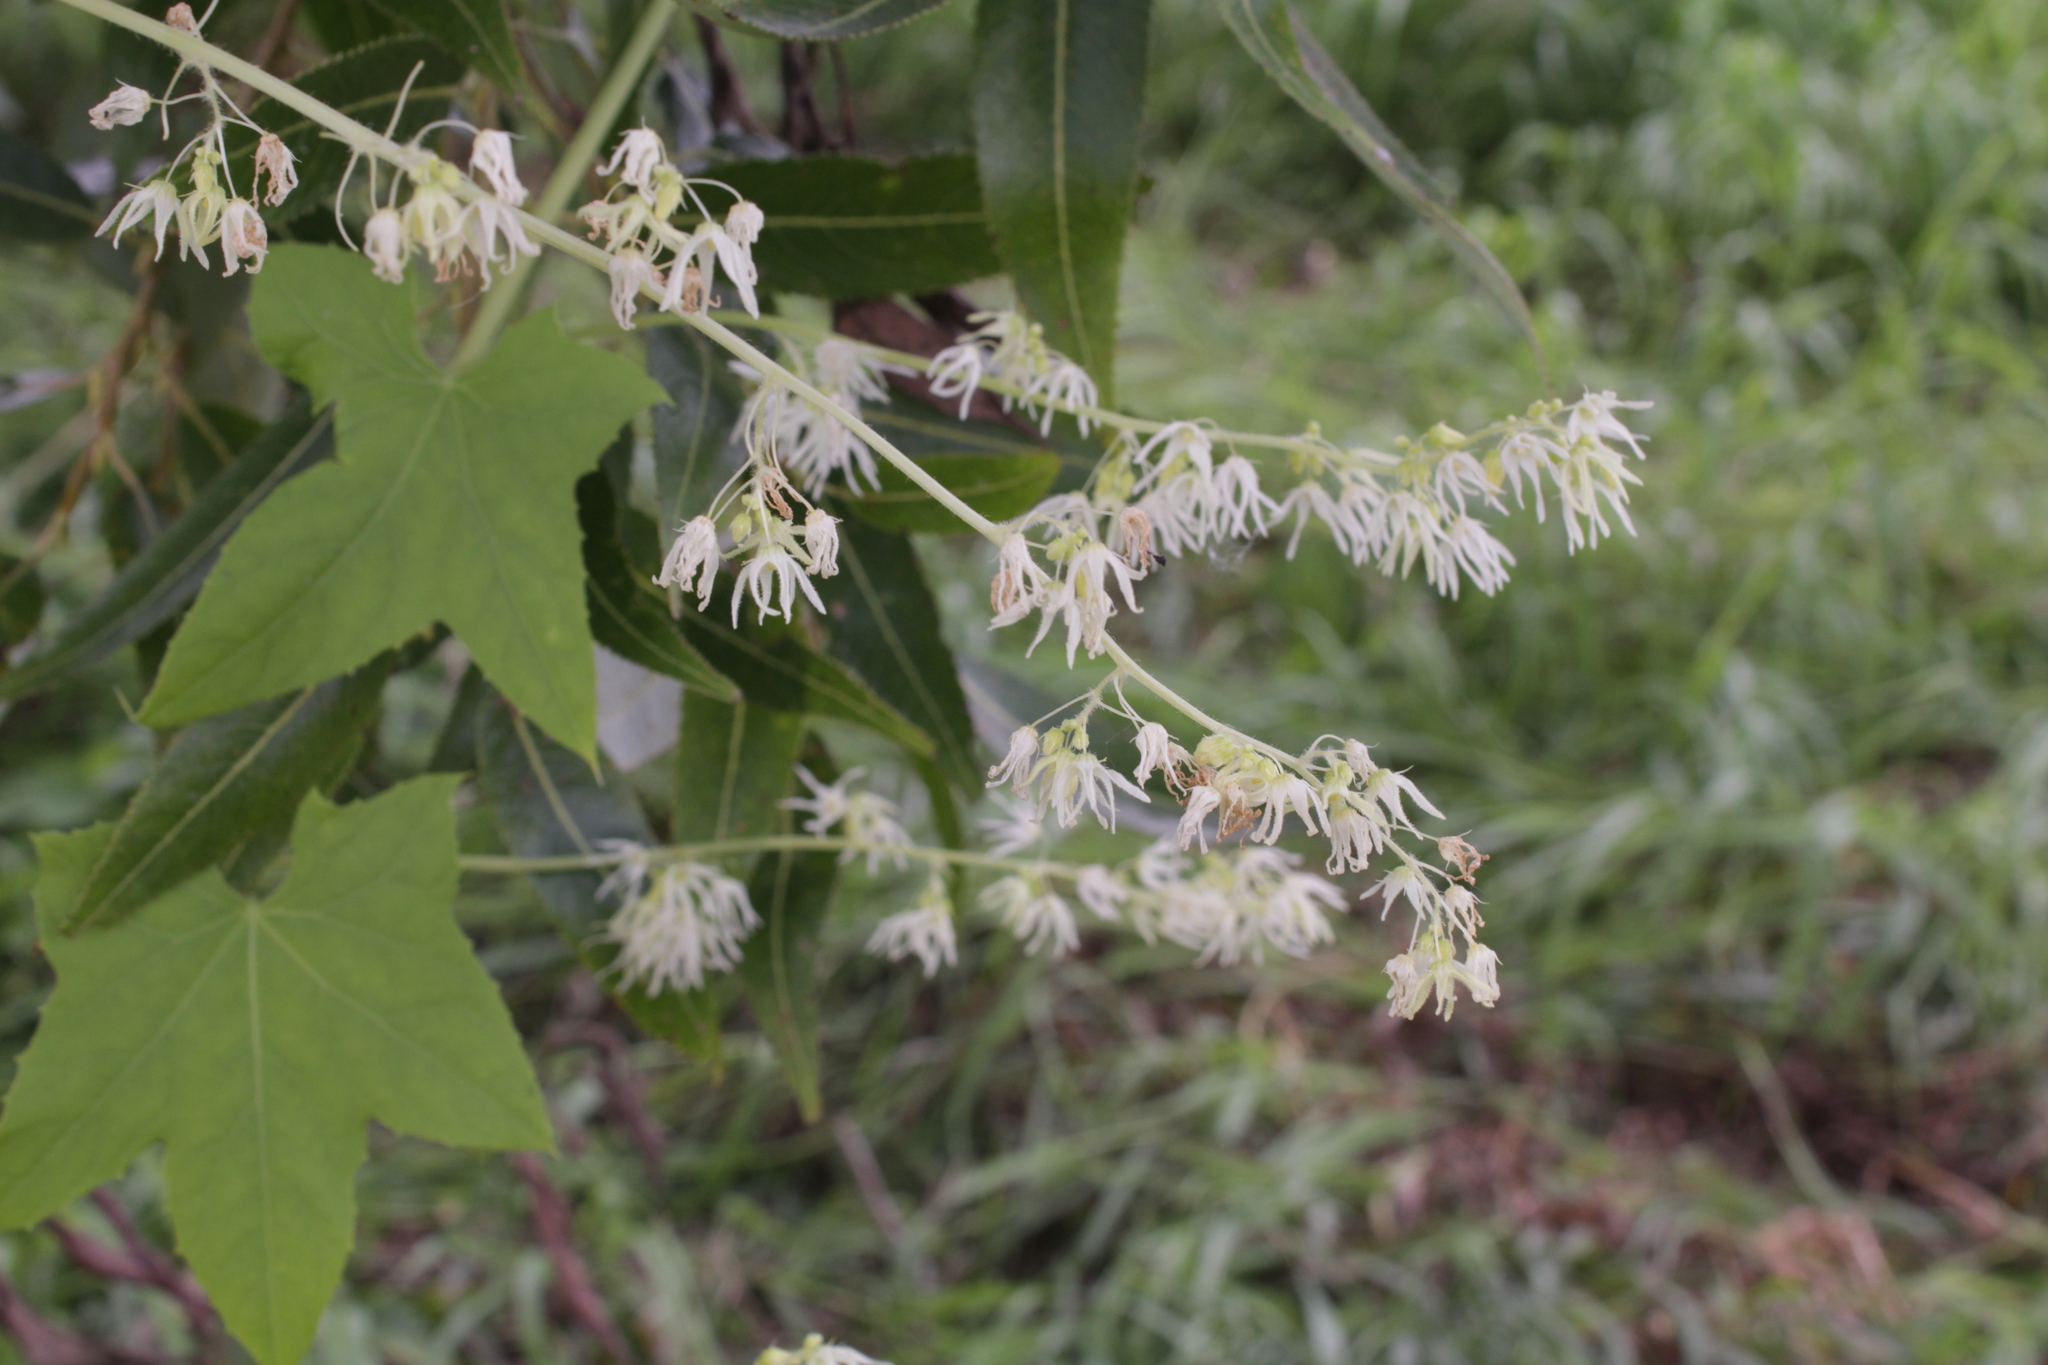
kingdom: Plantae
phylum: Tracheophyta
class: Magnoliopsida
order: Cucurbitales
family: Cucurbitaceae
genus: Echinocystis
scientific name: Echinocystis lobata
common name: Wild cucumber
